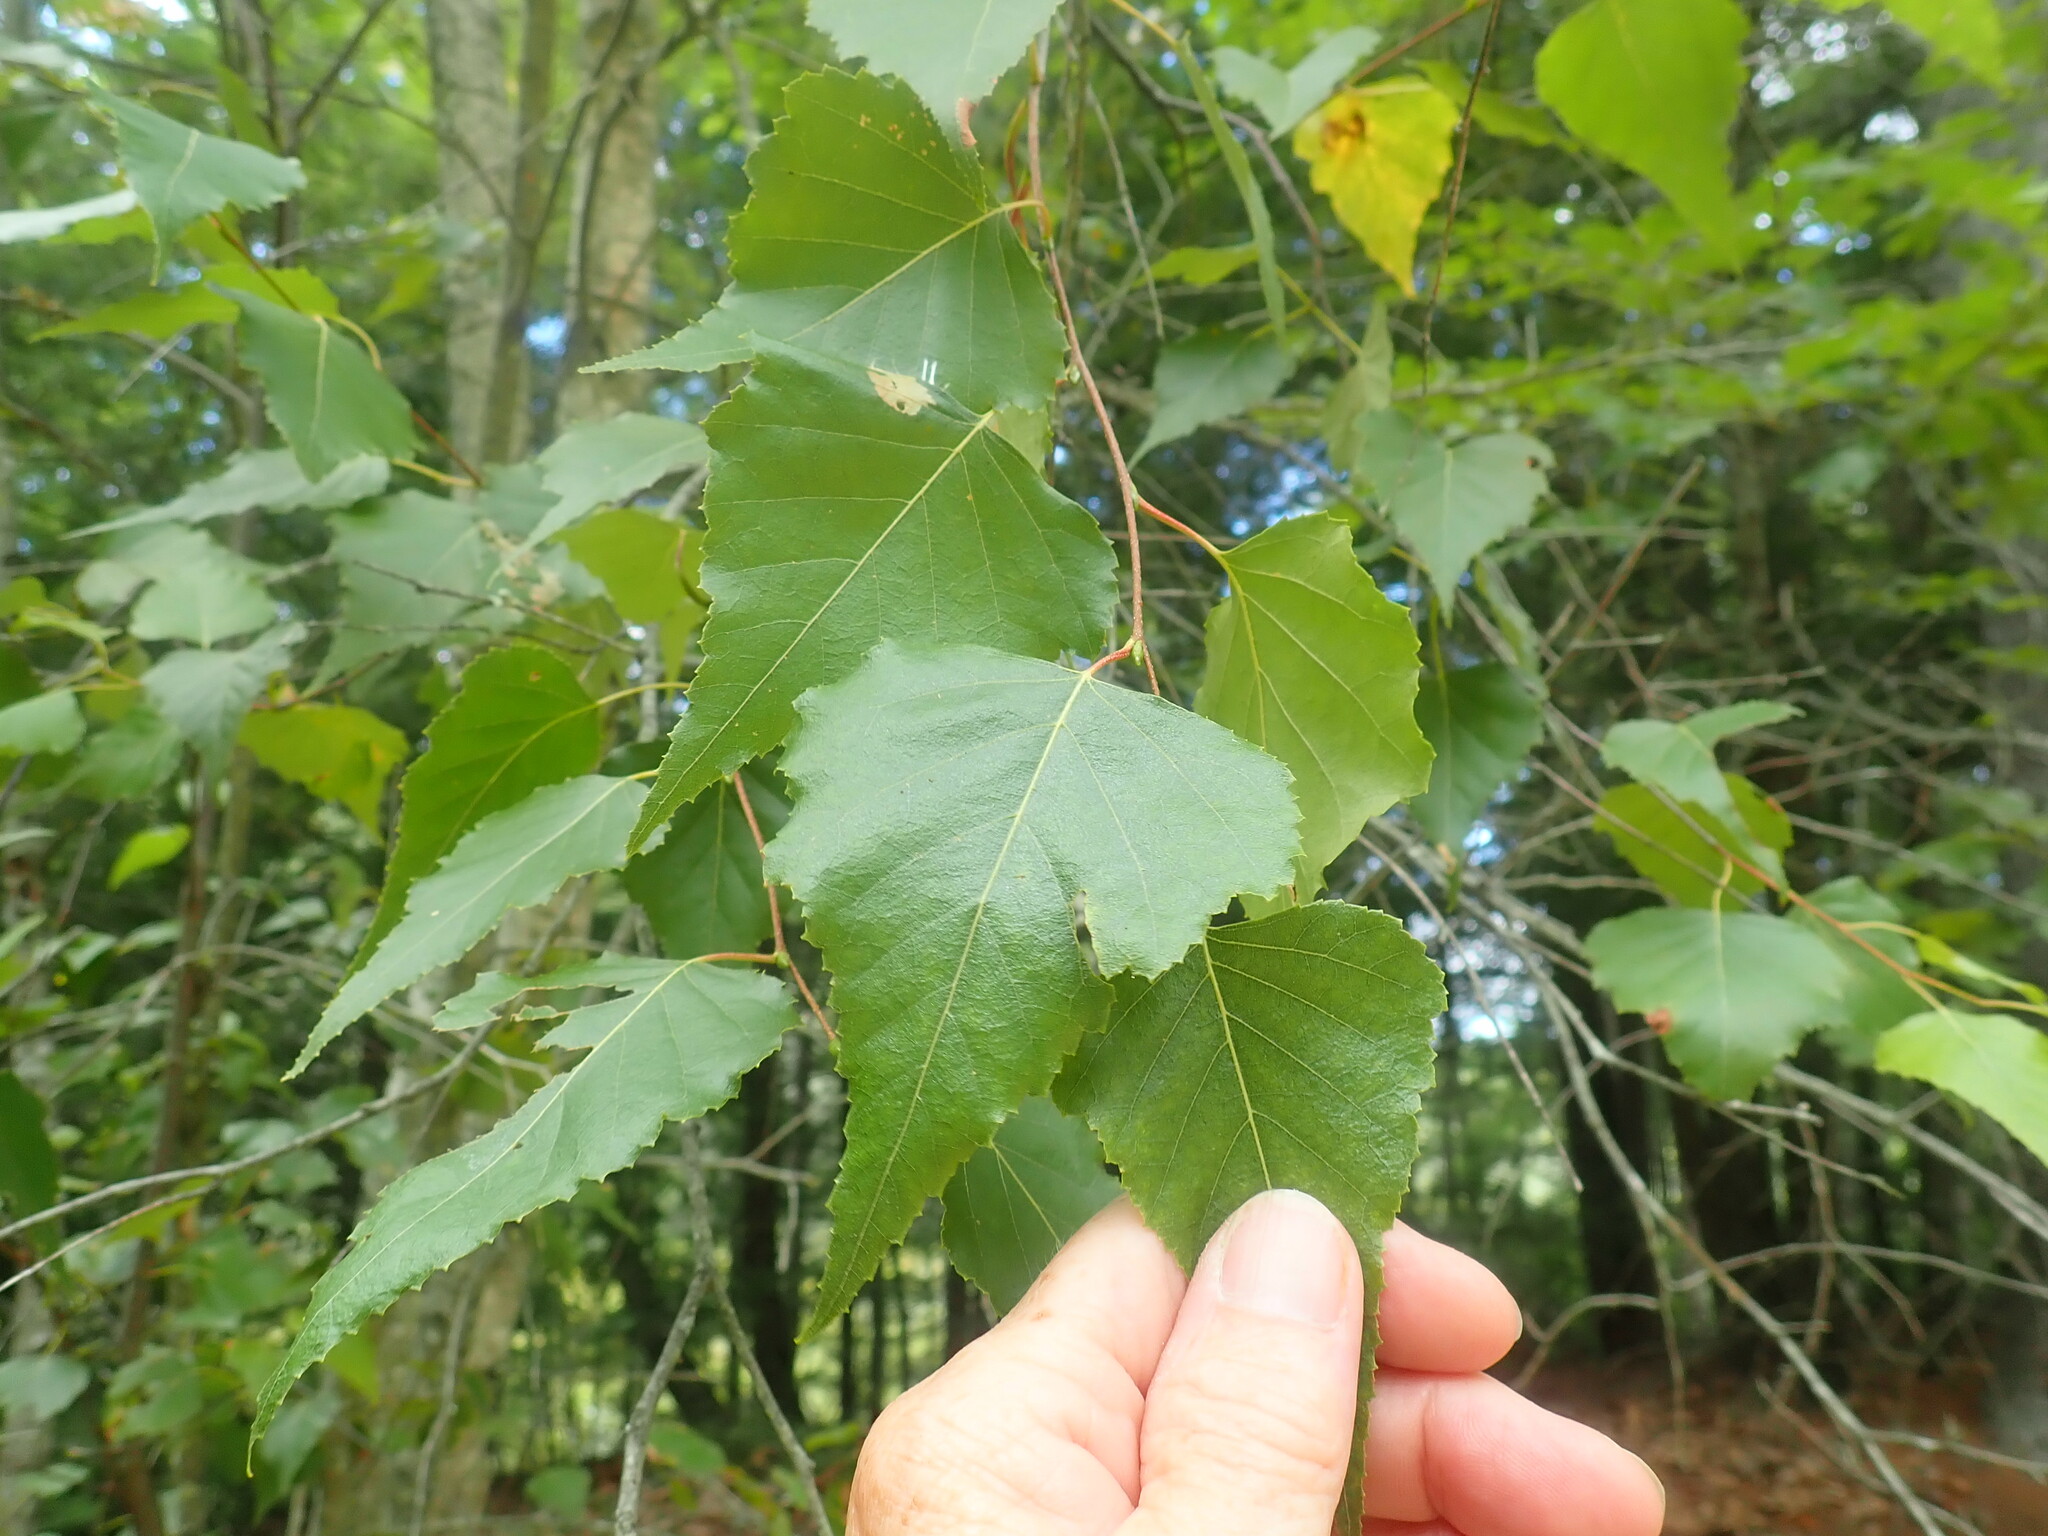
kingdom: Plantae
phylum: Tracheophyta
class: Magnoliopsida
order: Fagales
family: Betulaceae
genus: Betula
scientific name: Betula populifolia
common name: Fire birch
